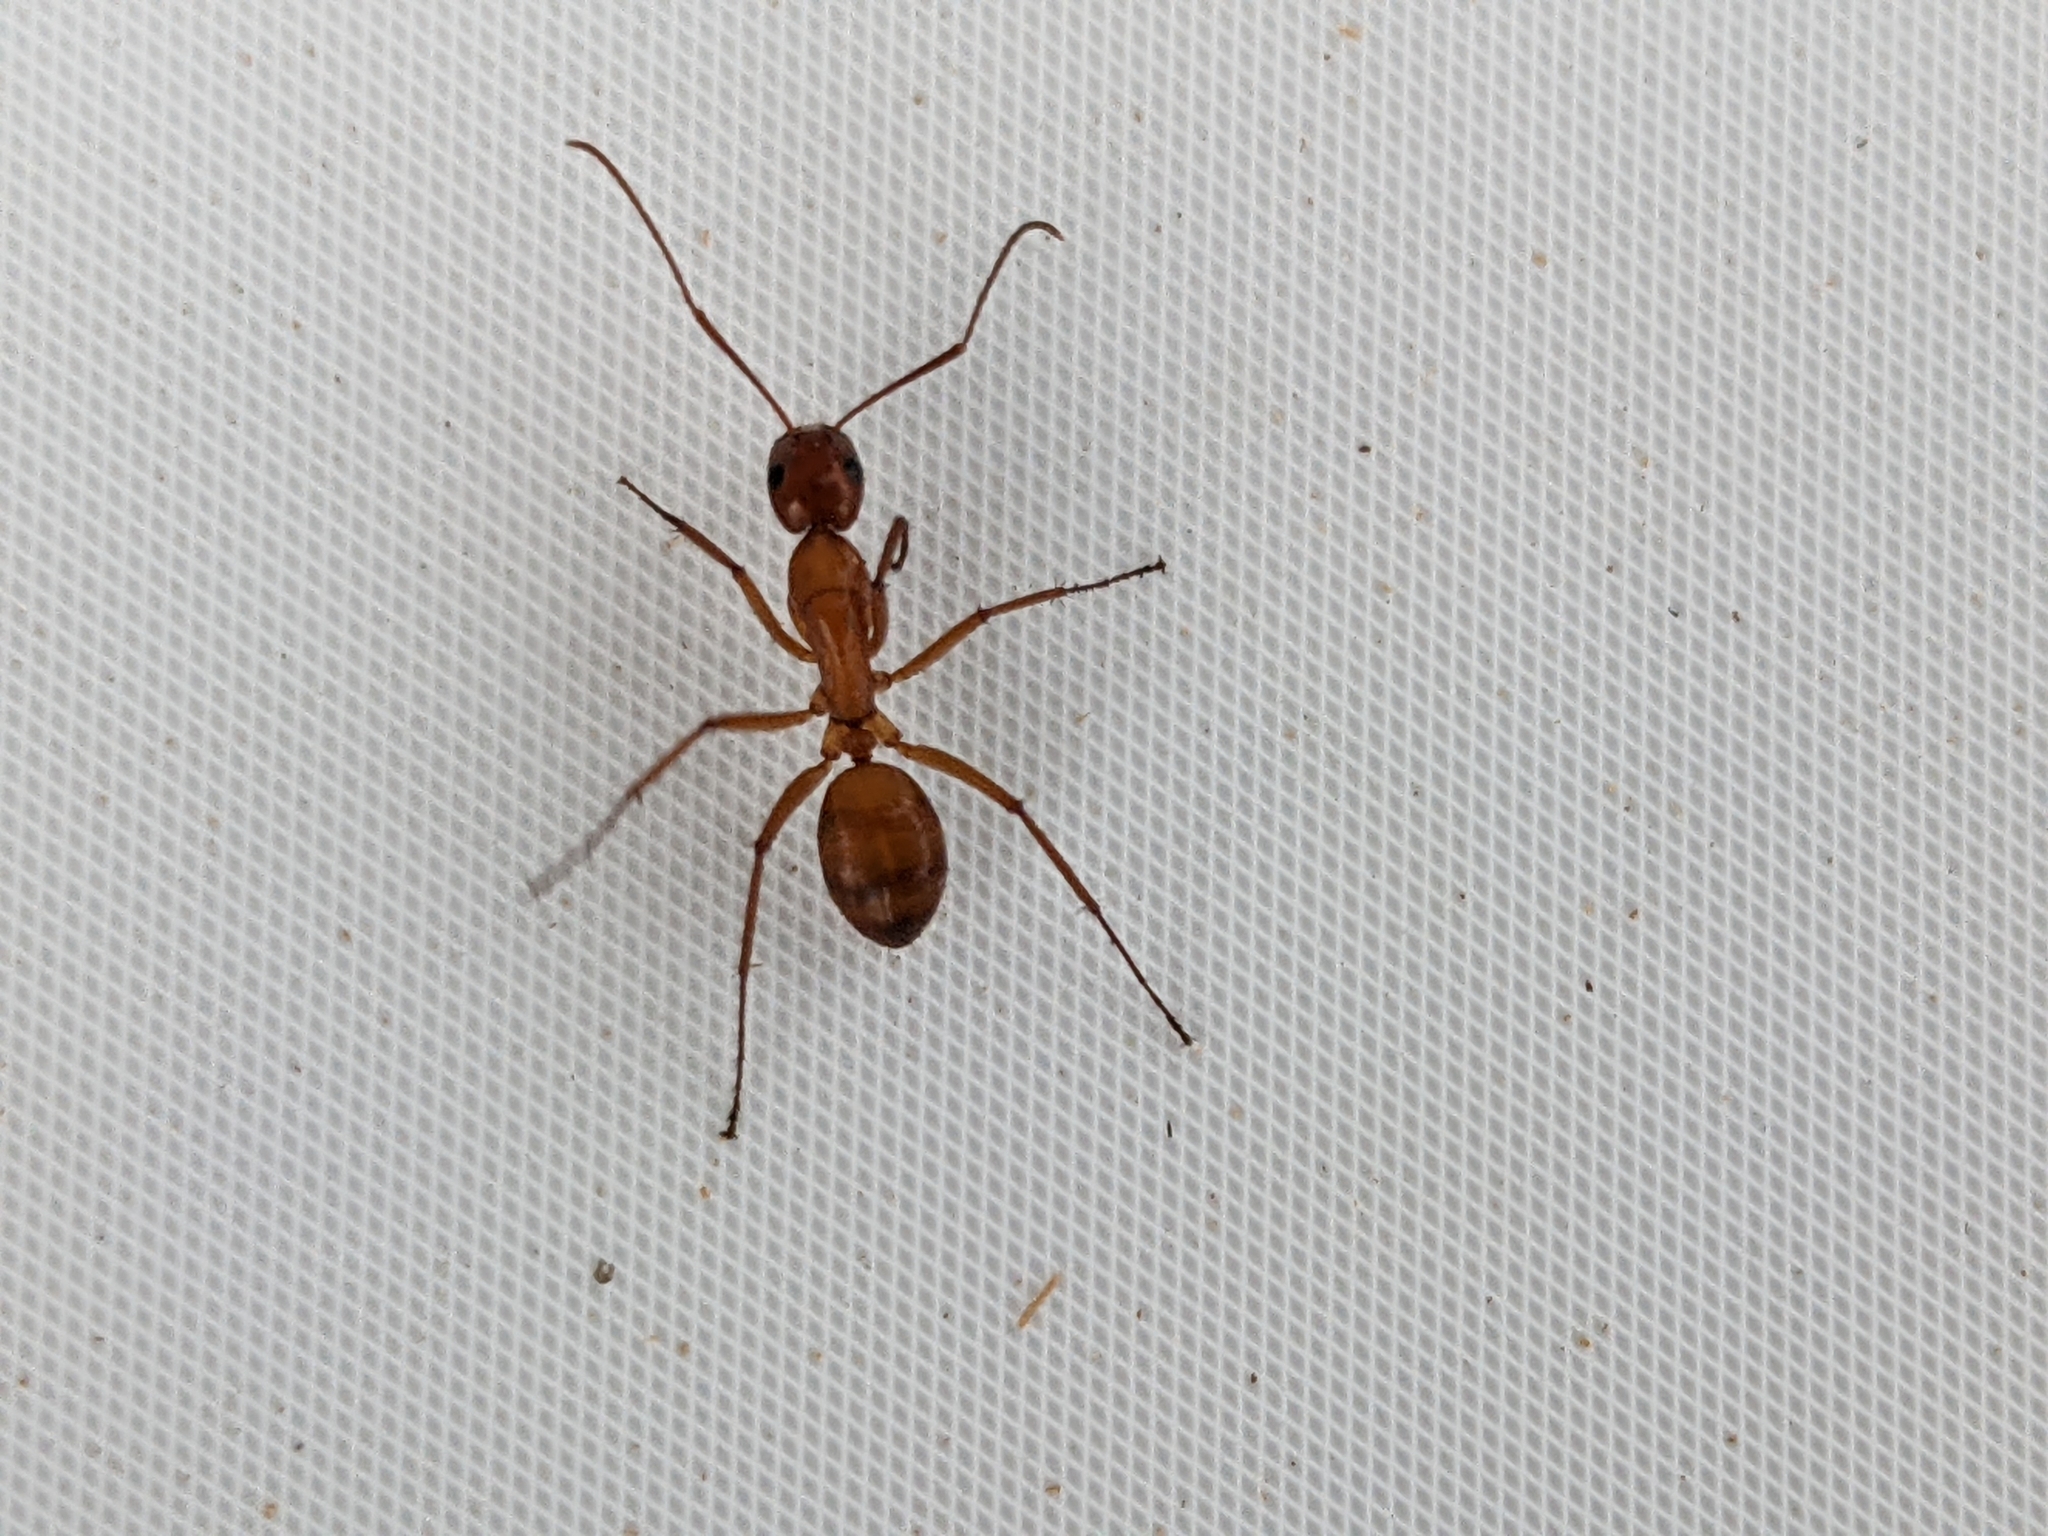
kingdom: Animalia
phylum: Arthropoda
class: Insecta
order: Hymenoptera
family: Formicidae
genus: Camponotus
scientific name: Camponotus castaneus
